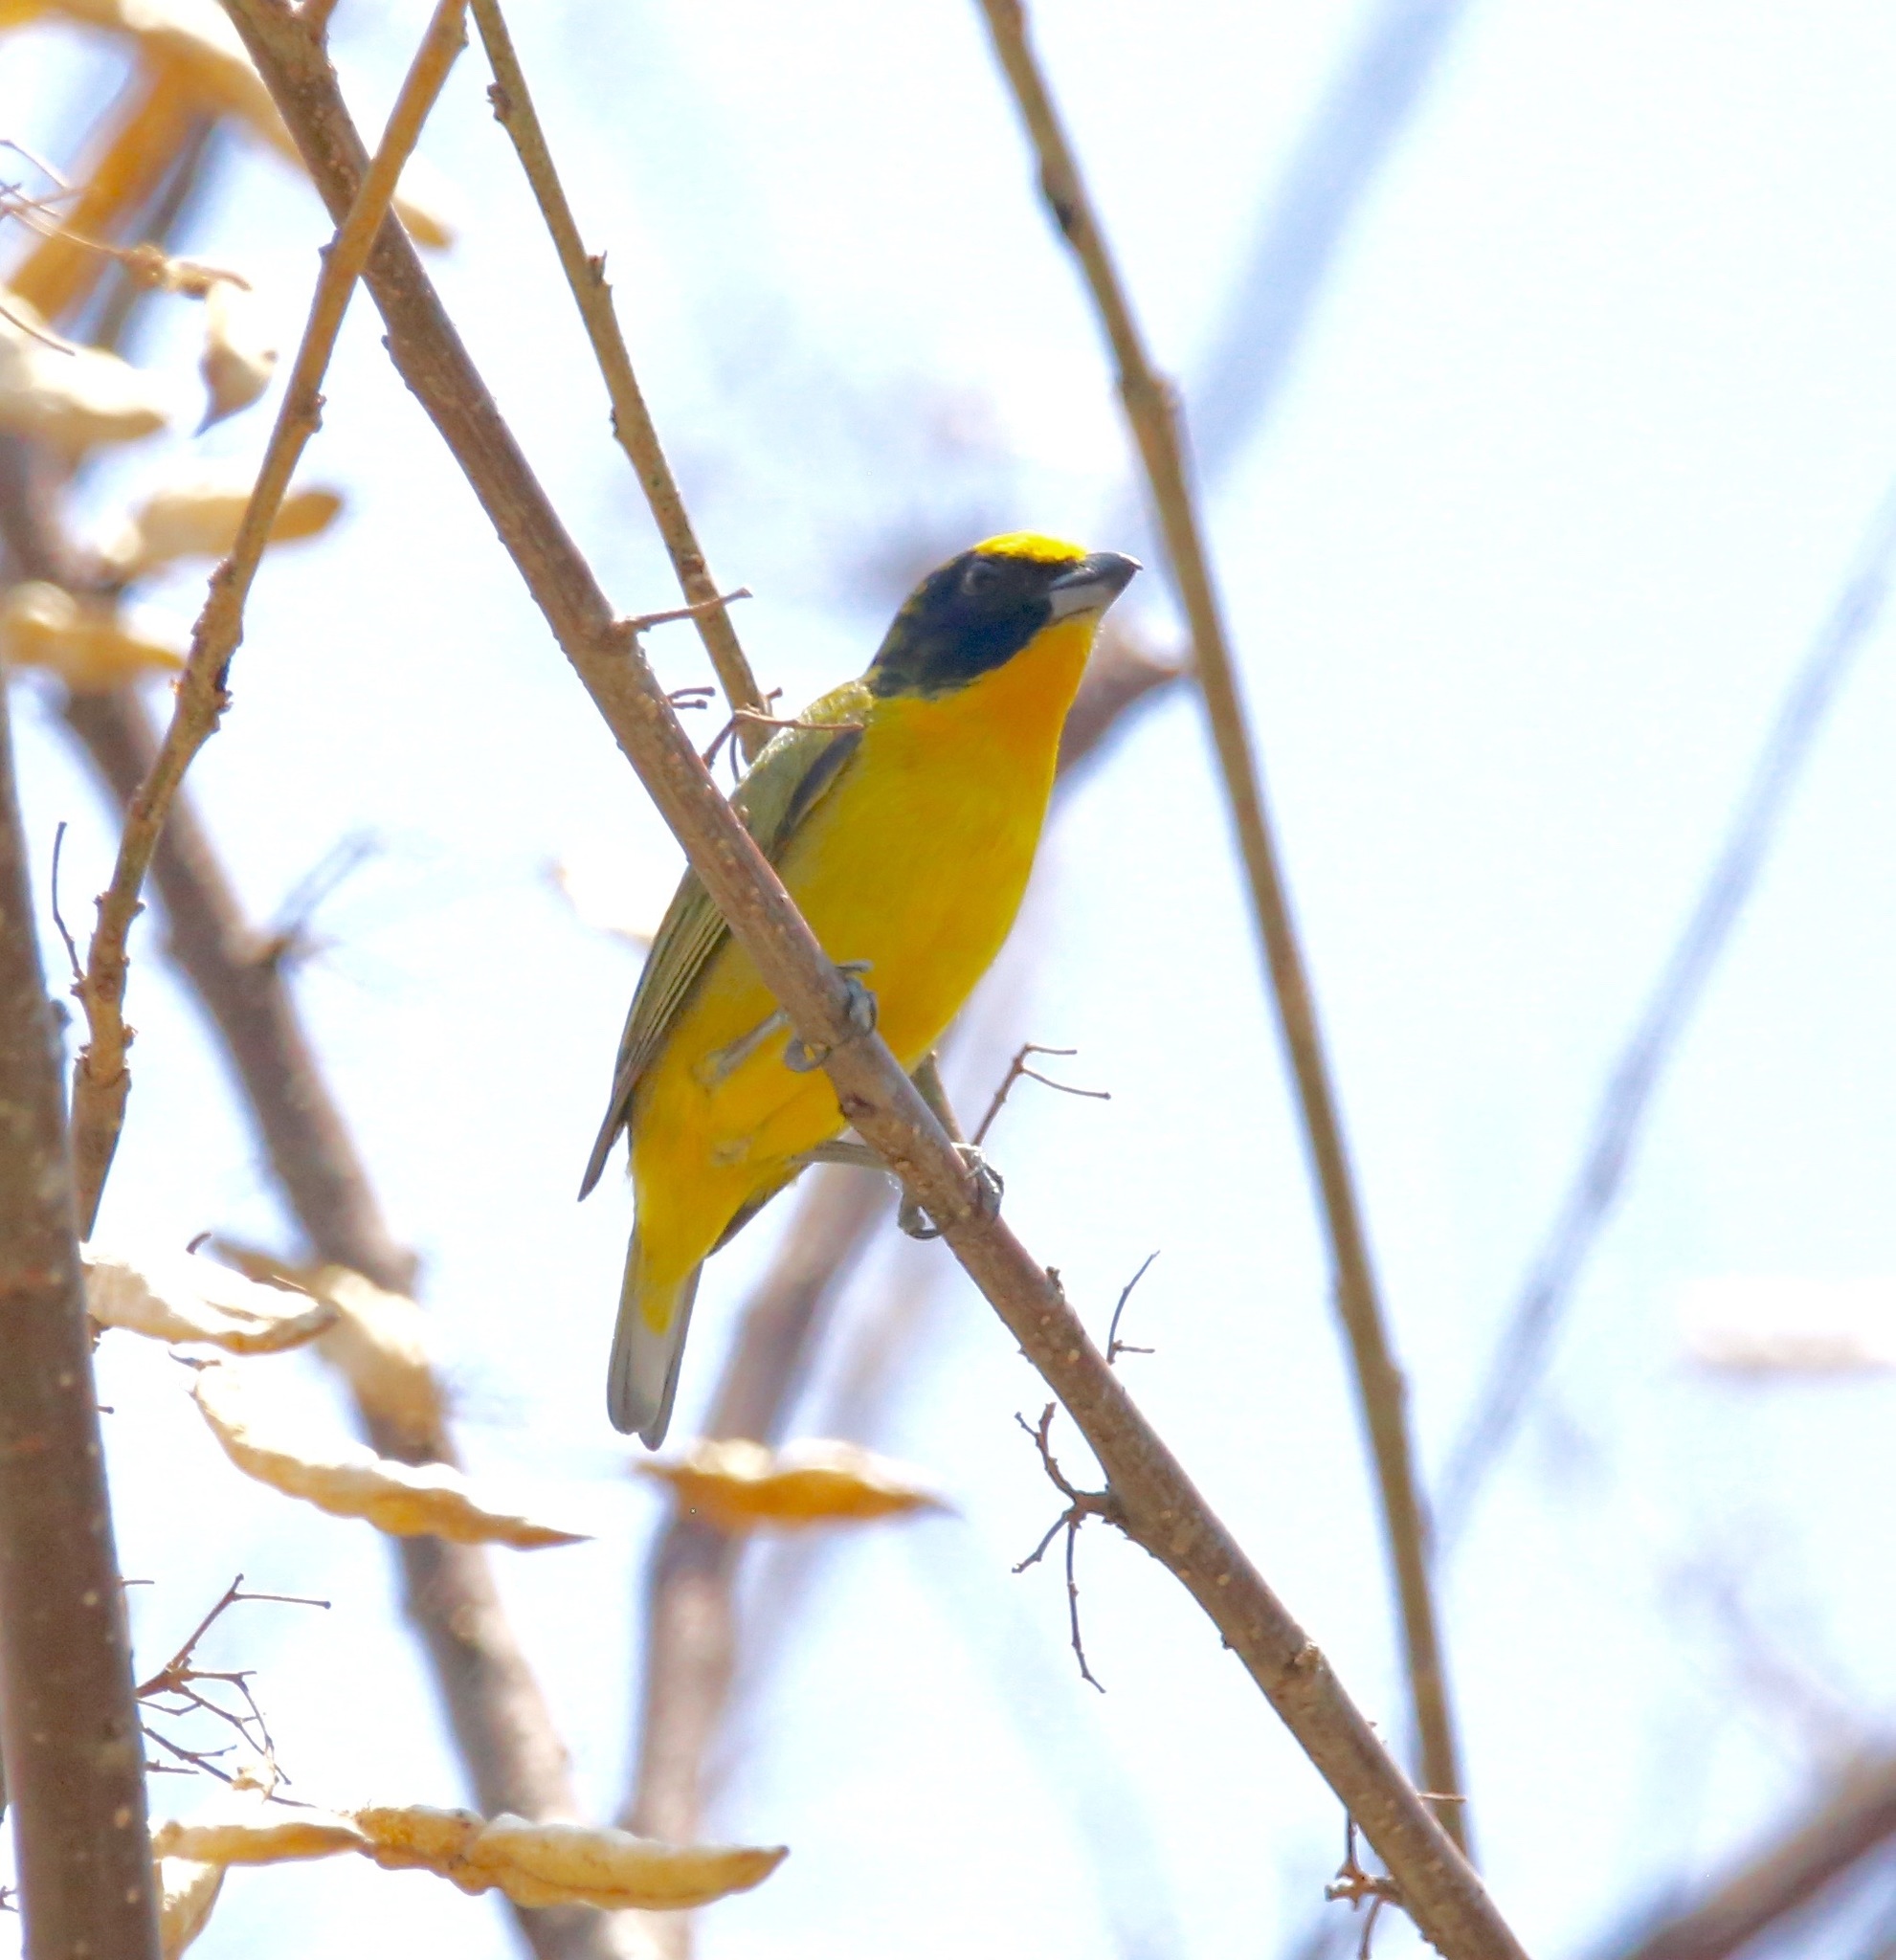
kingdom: Animalia
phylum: Chordata
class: Aves
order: Passeriformes
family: Fringillidae
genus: Euphonia
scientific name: Euphonia laniirostris
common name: Thick-billed euphonia
